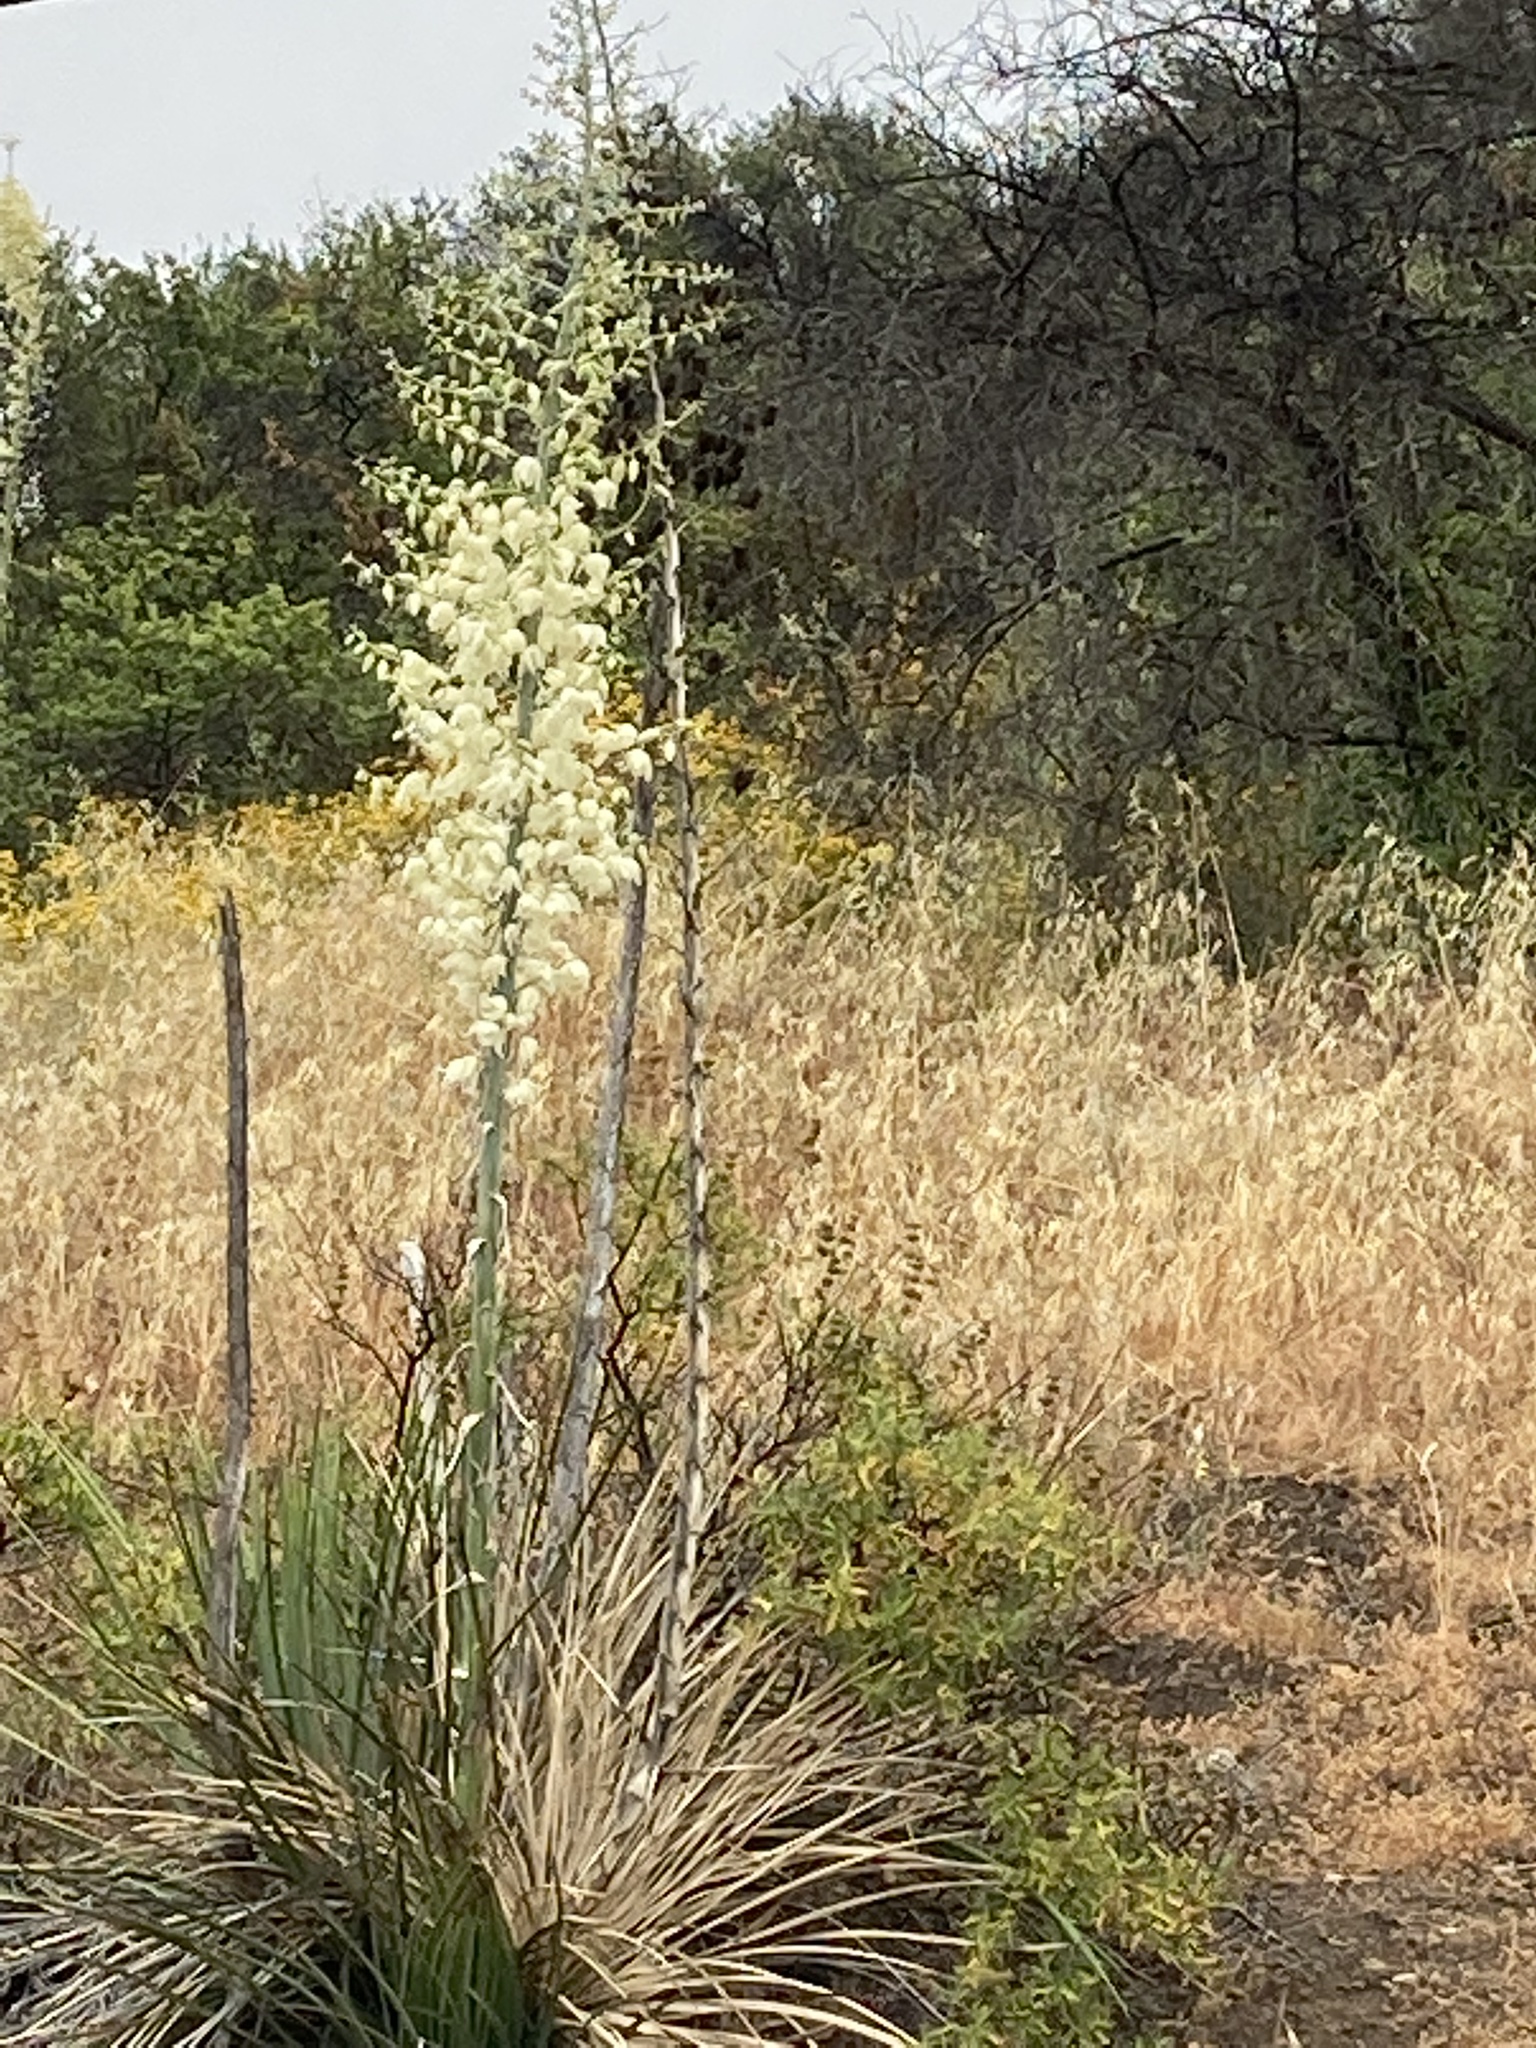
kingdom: Plantae
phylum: Tracheophyta
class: Liliopsida
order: Asparagales
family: Asparagaceae
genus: Hesperoyucca
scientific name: Hesperoyucca whipplei
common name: Our lord's-candle
